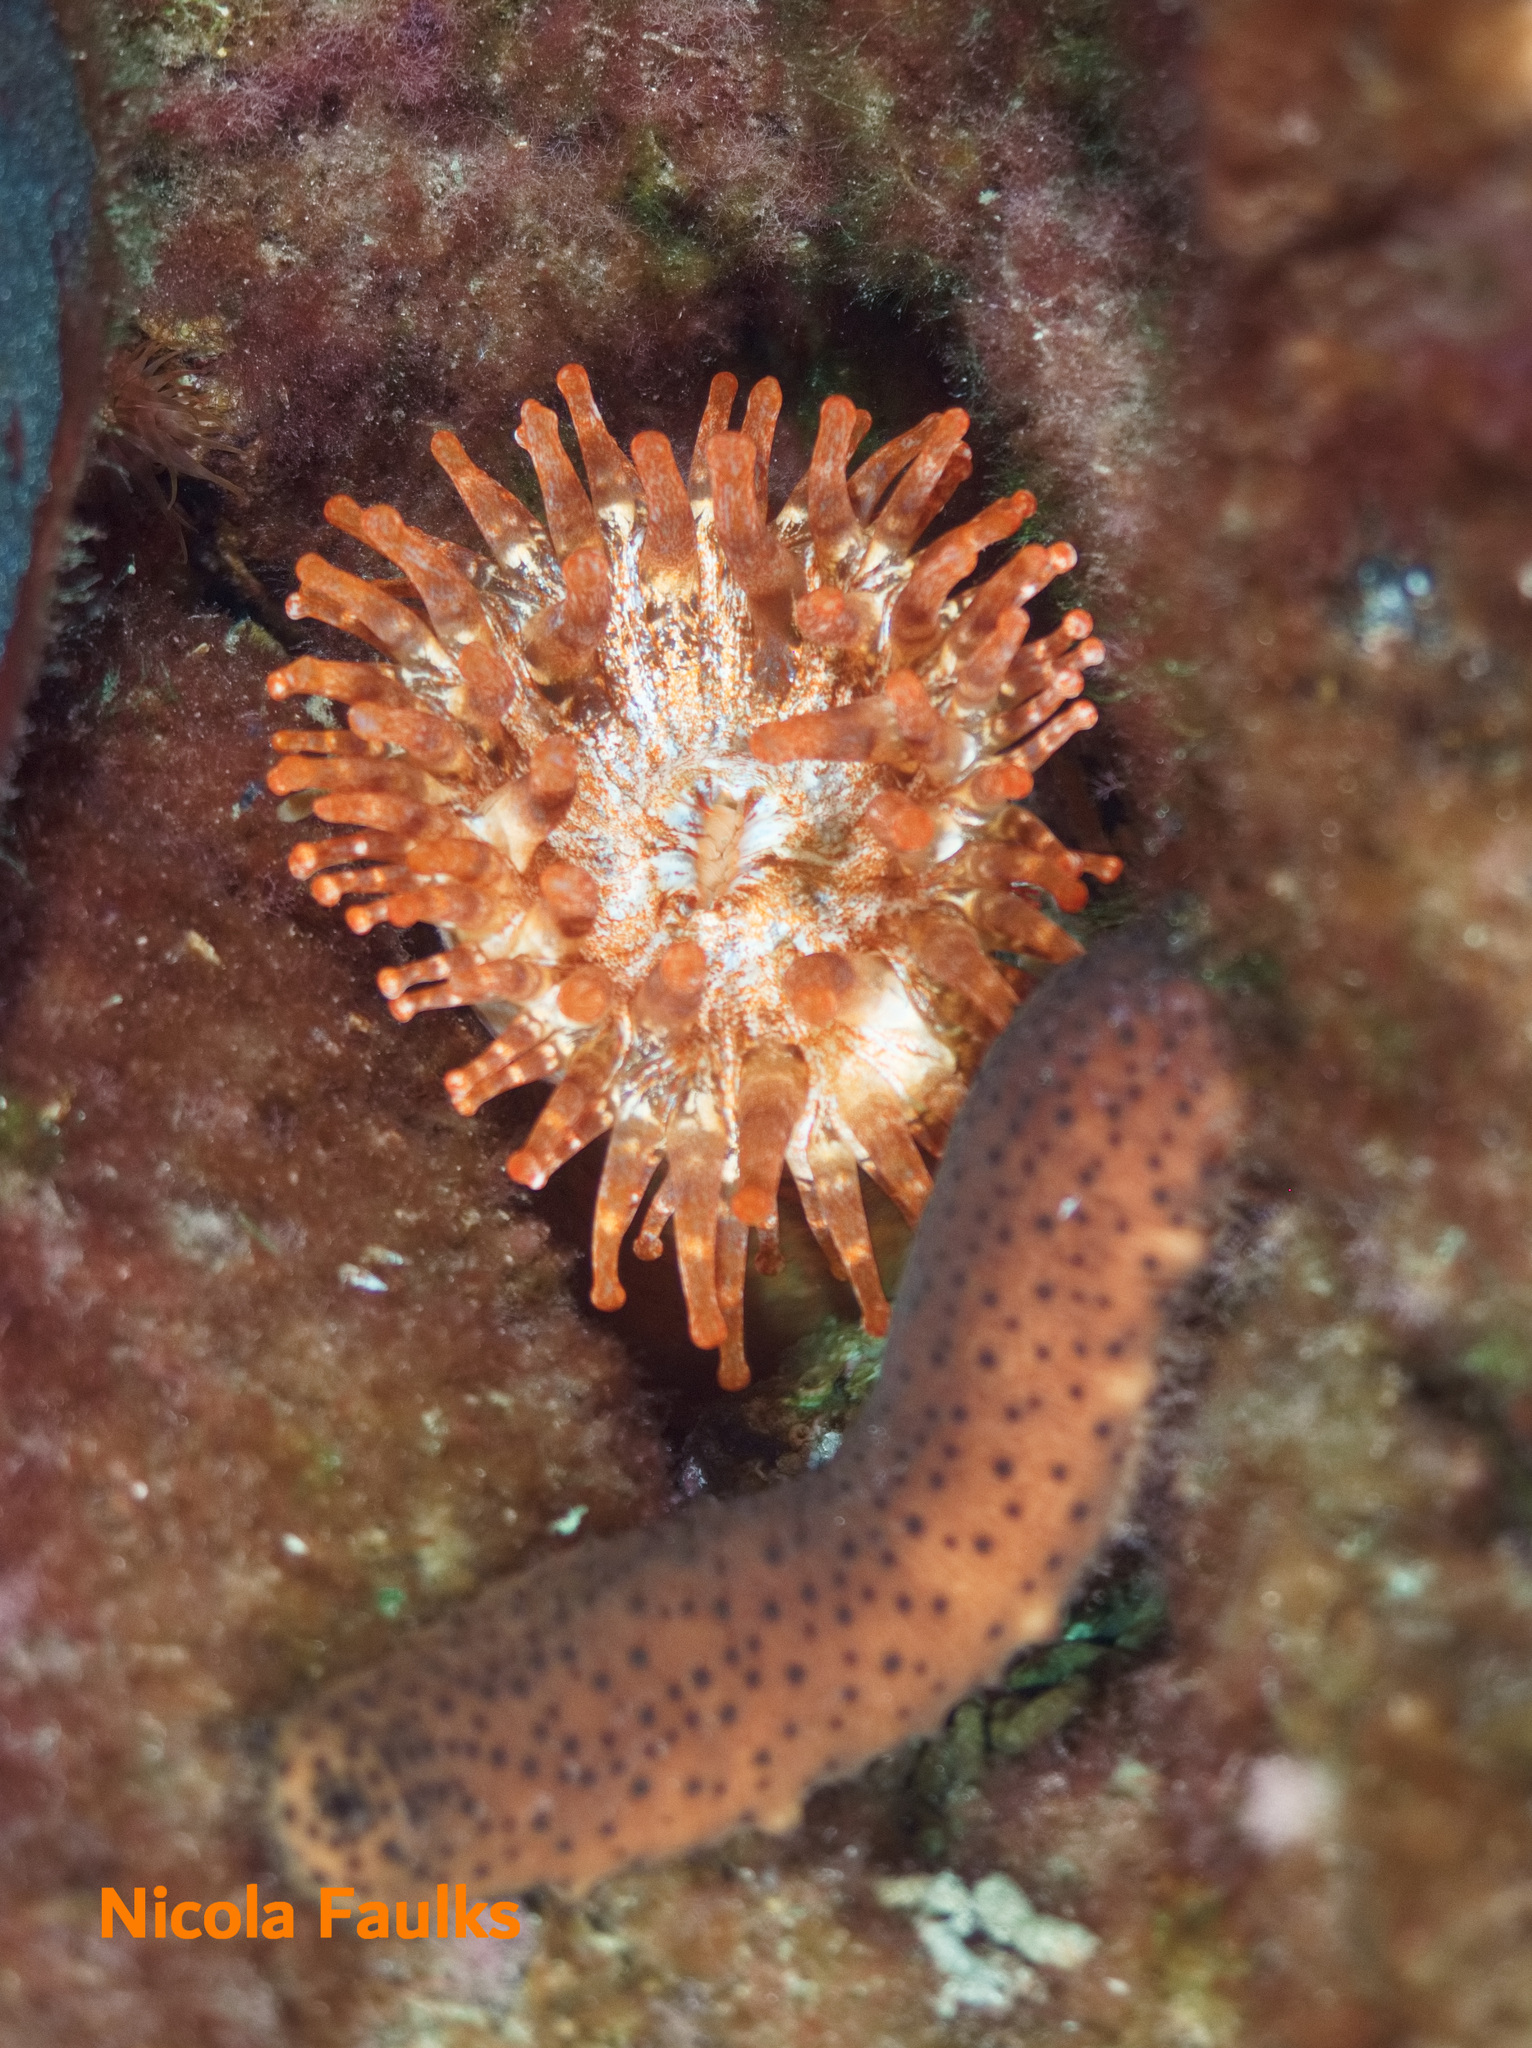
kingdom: Animalia
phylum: Cnidaria
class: Anthozoa
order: Actiniaria
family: Andvakiidae
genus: Telmatactis
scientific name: Telmatactis cricoides
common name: Blunt-tentacled anemone
